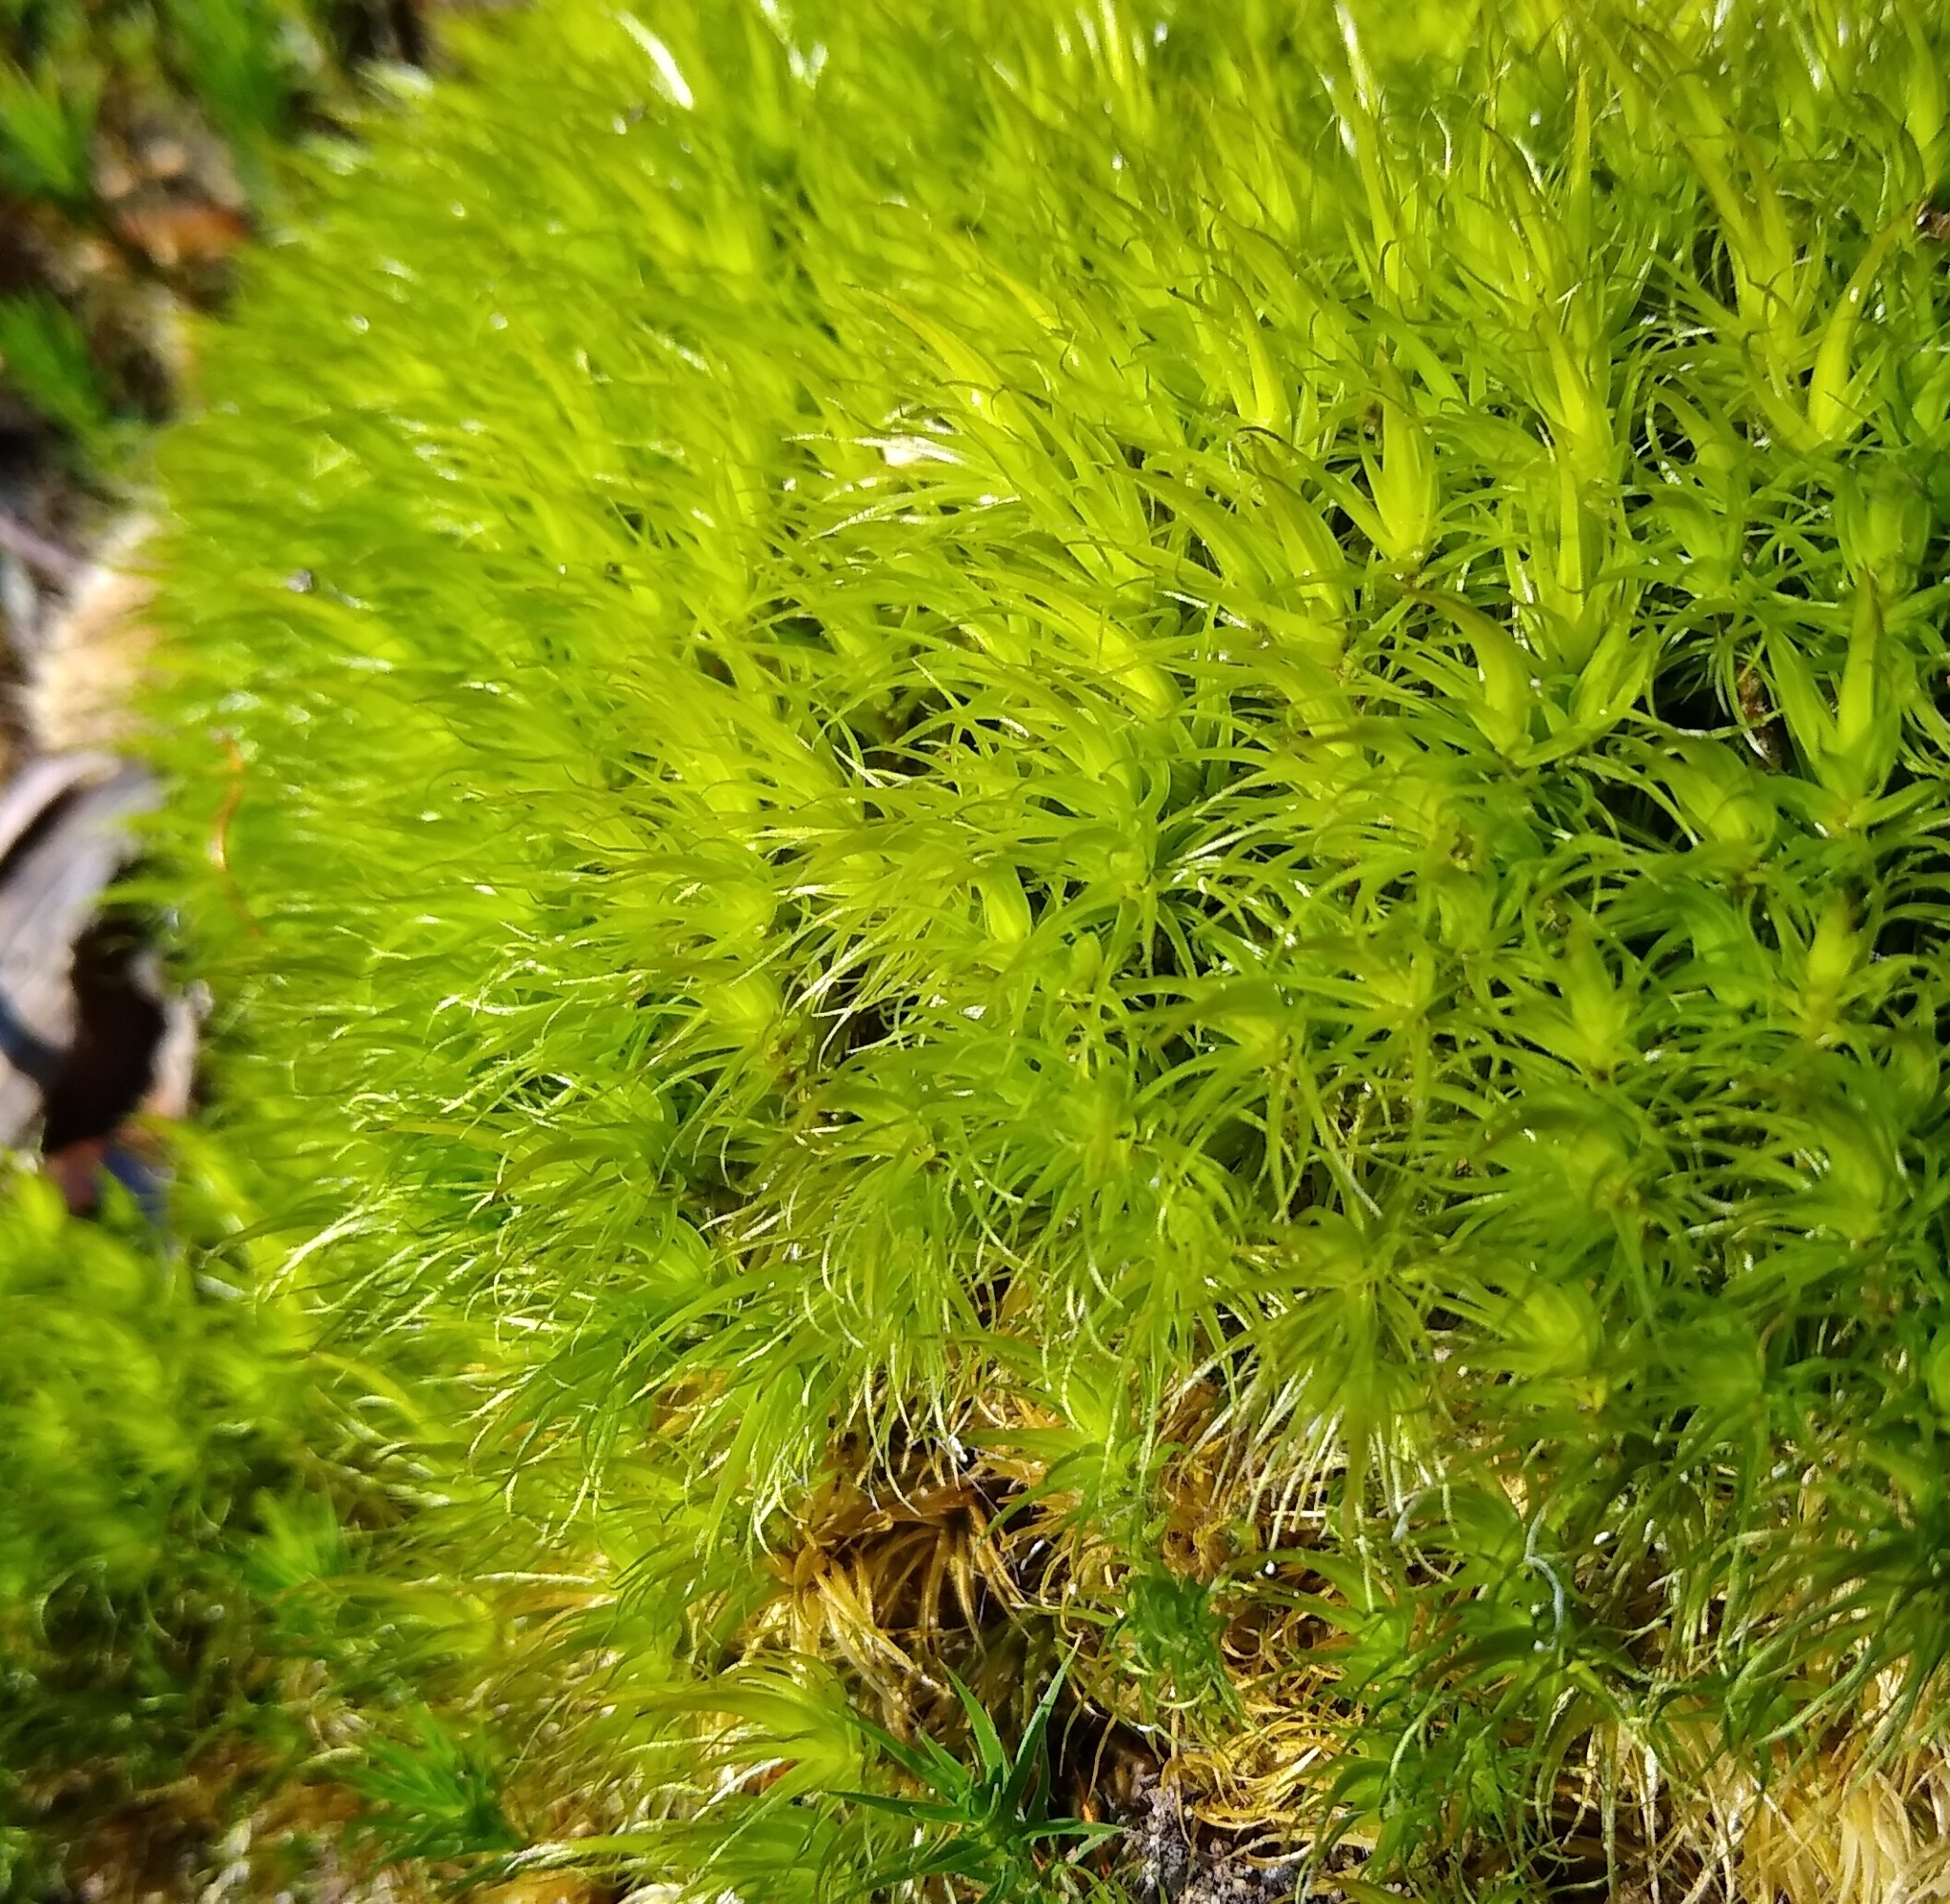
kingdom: Plantae
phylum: Bryophyta
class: Bryopsida
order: Dicranales
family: Dicranaceae
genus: Dicranum
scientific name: Dicranum scoparium
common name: Broom fork-moss
